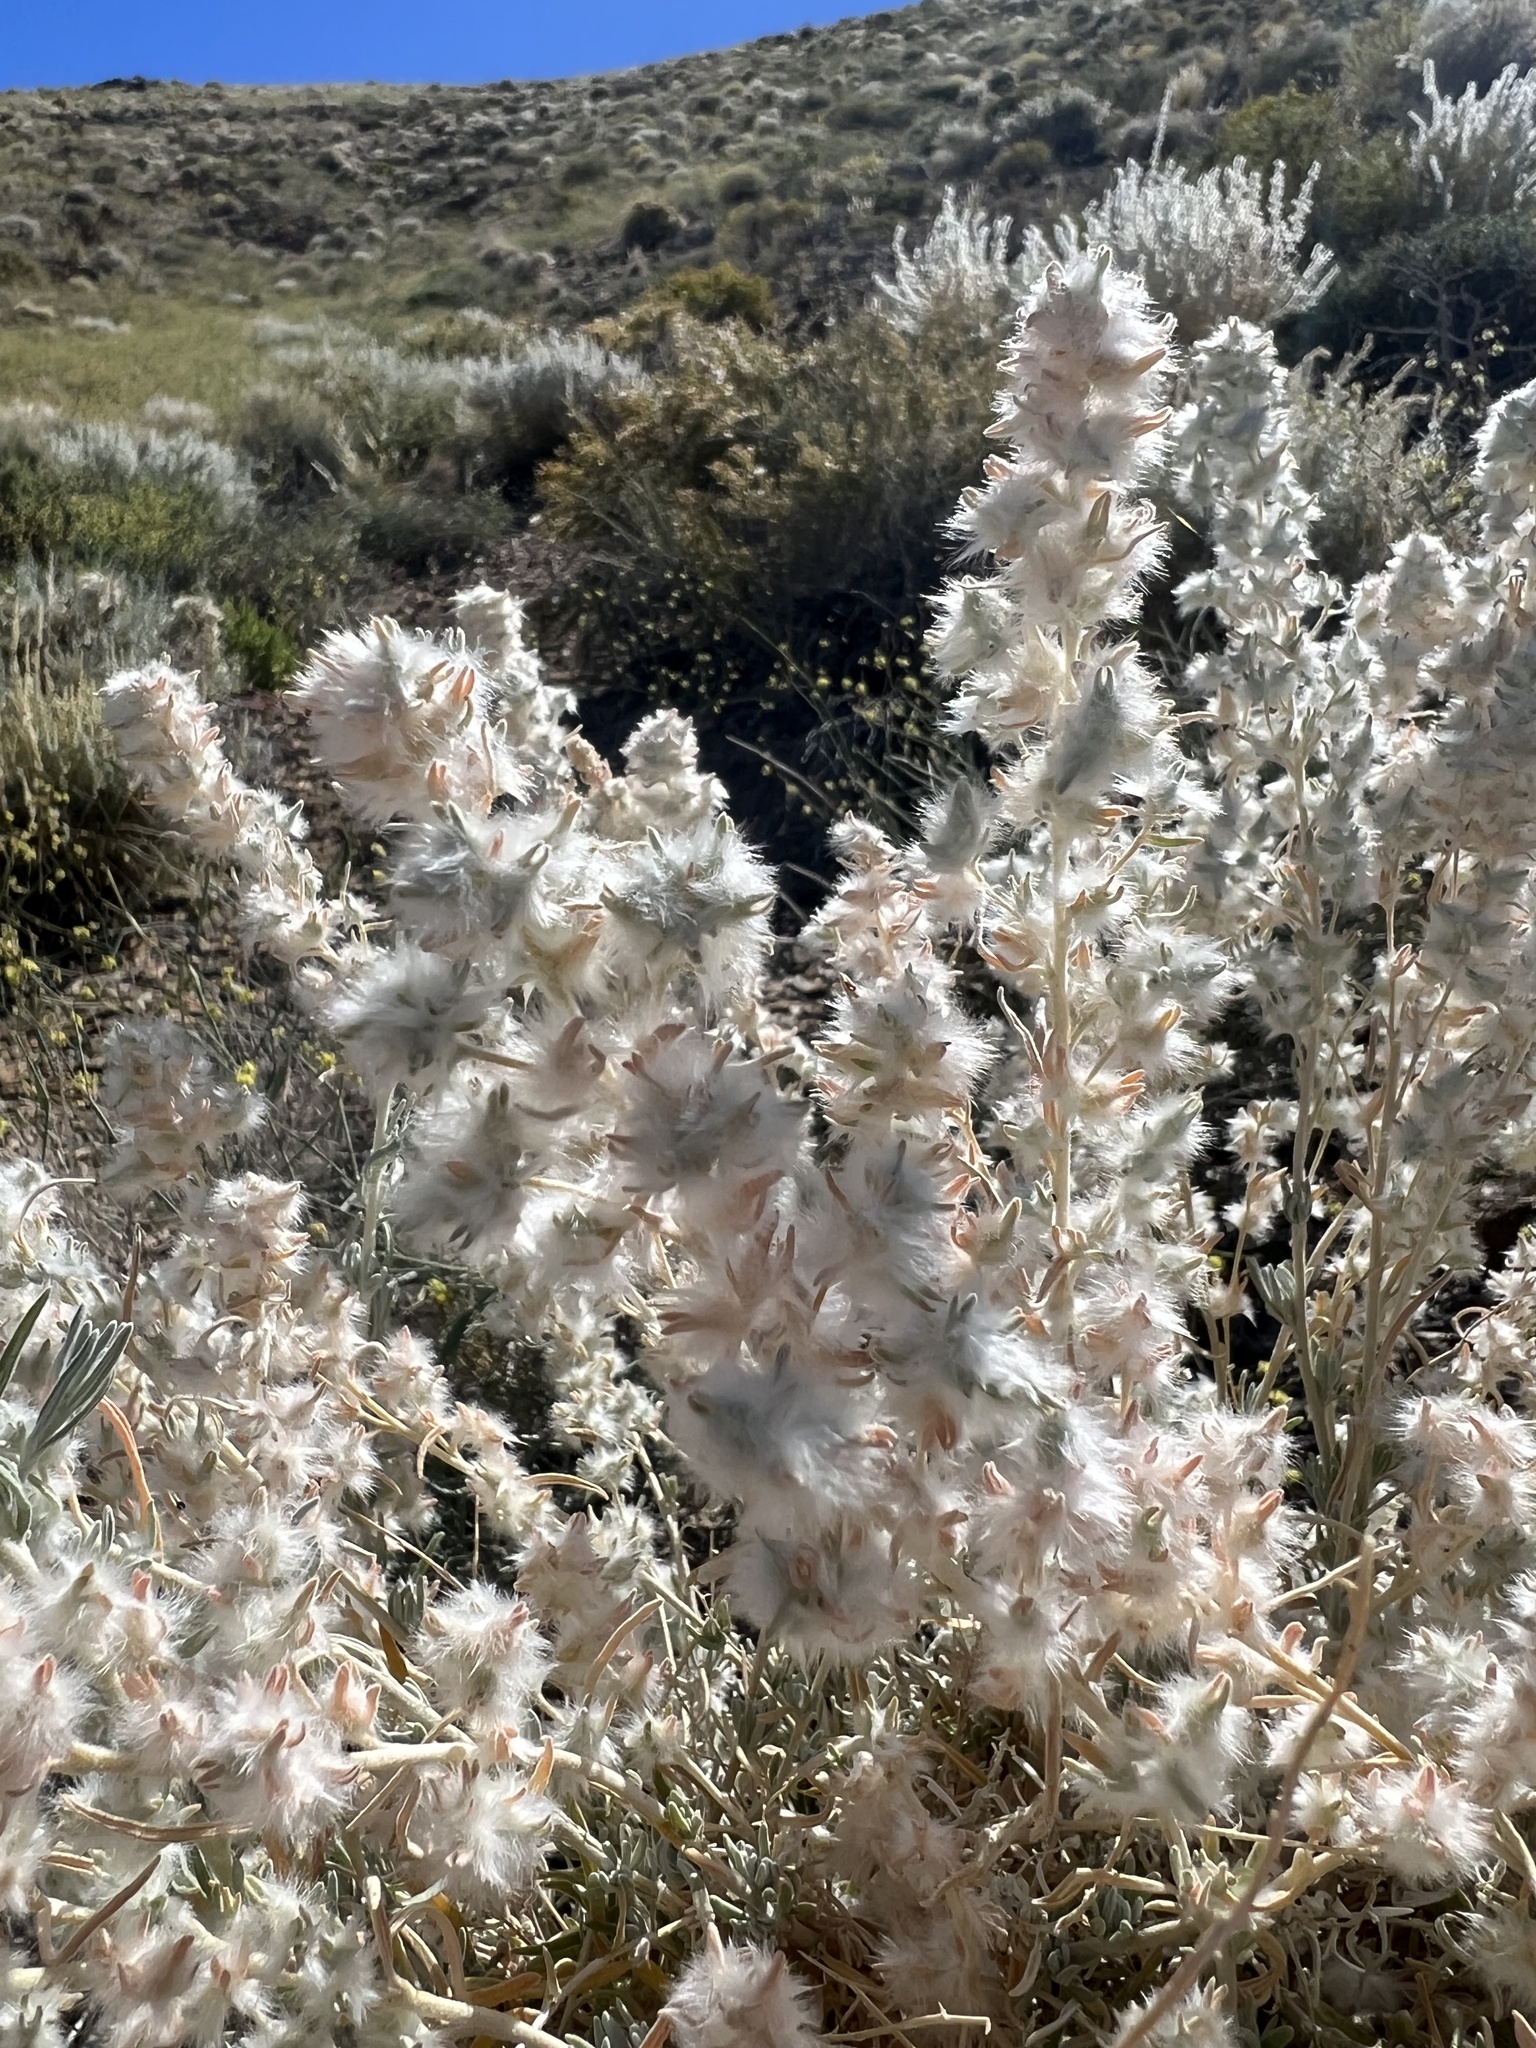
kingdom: Plantae
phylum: Tracheophyta
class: Magnoliopsida
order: Caryophyllales
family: Amaranthaceae
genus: Krascheninnikovia
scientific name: Krascheninnikovia lanata
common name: Winterfat
